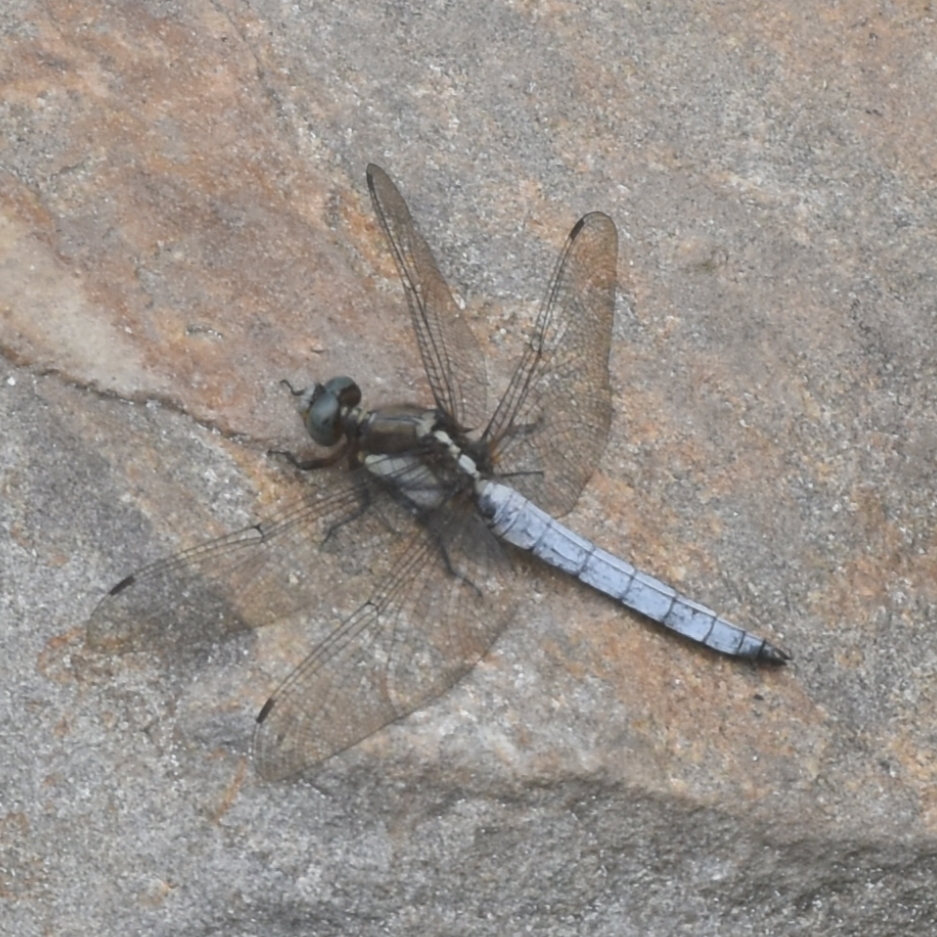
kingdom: Animalia
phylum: Arthropoda
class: Insecta
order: Odonata
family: Libellulidae
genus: Orthetrum
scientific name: Orthetrum internum
